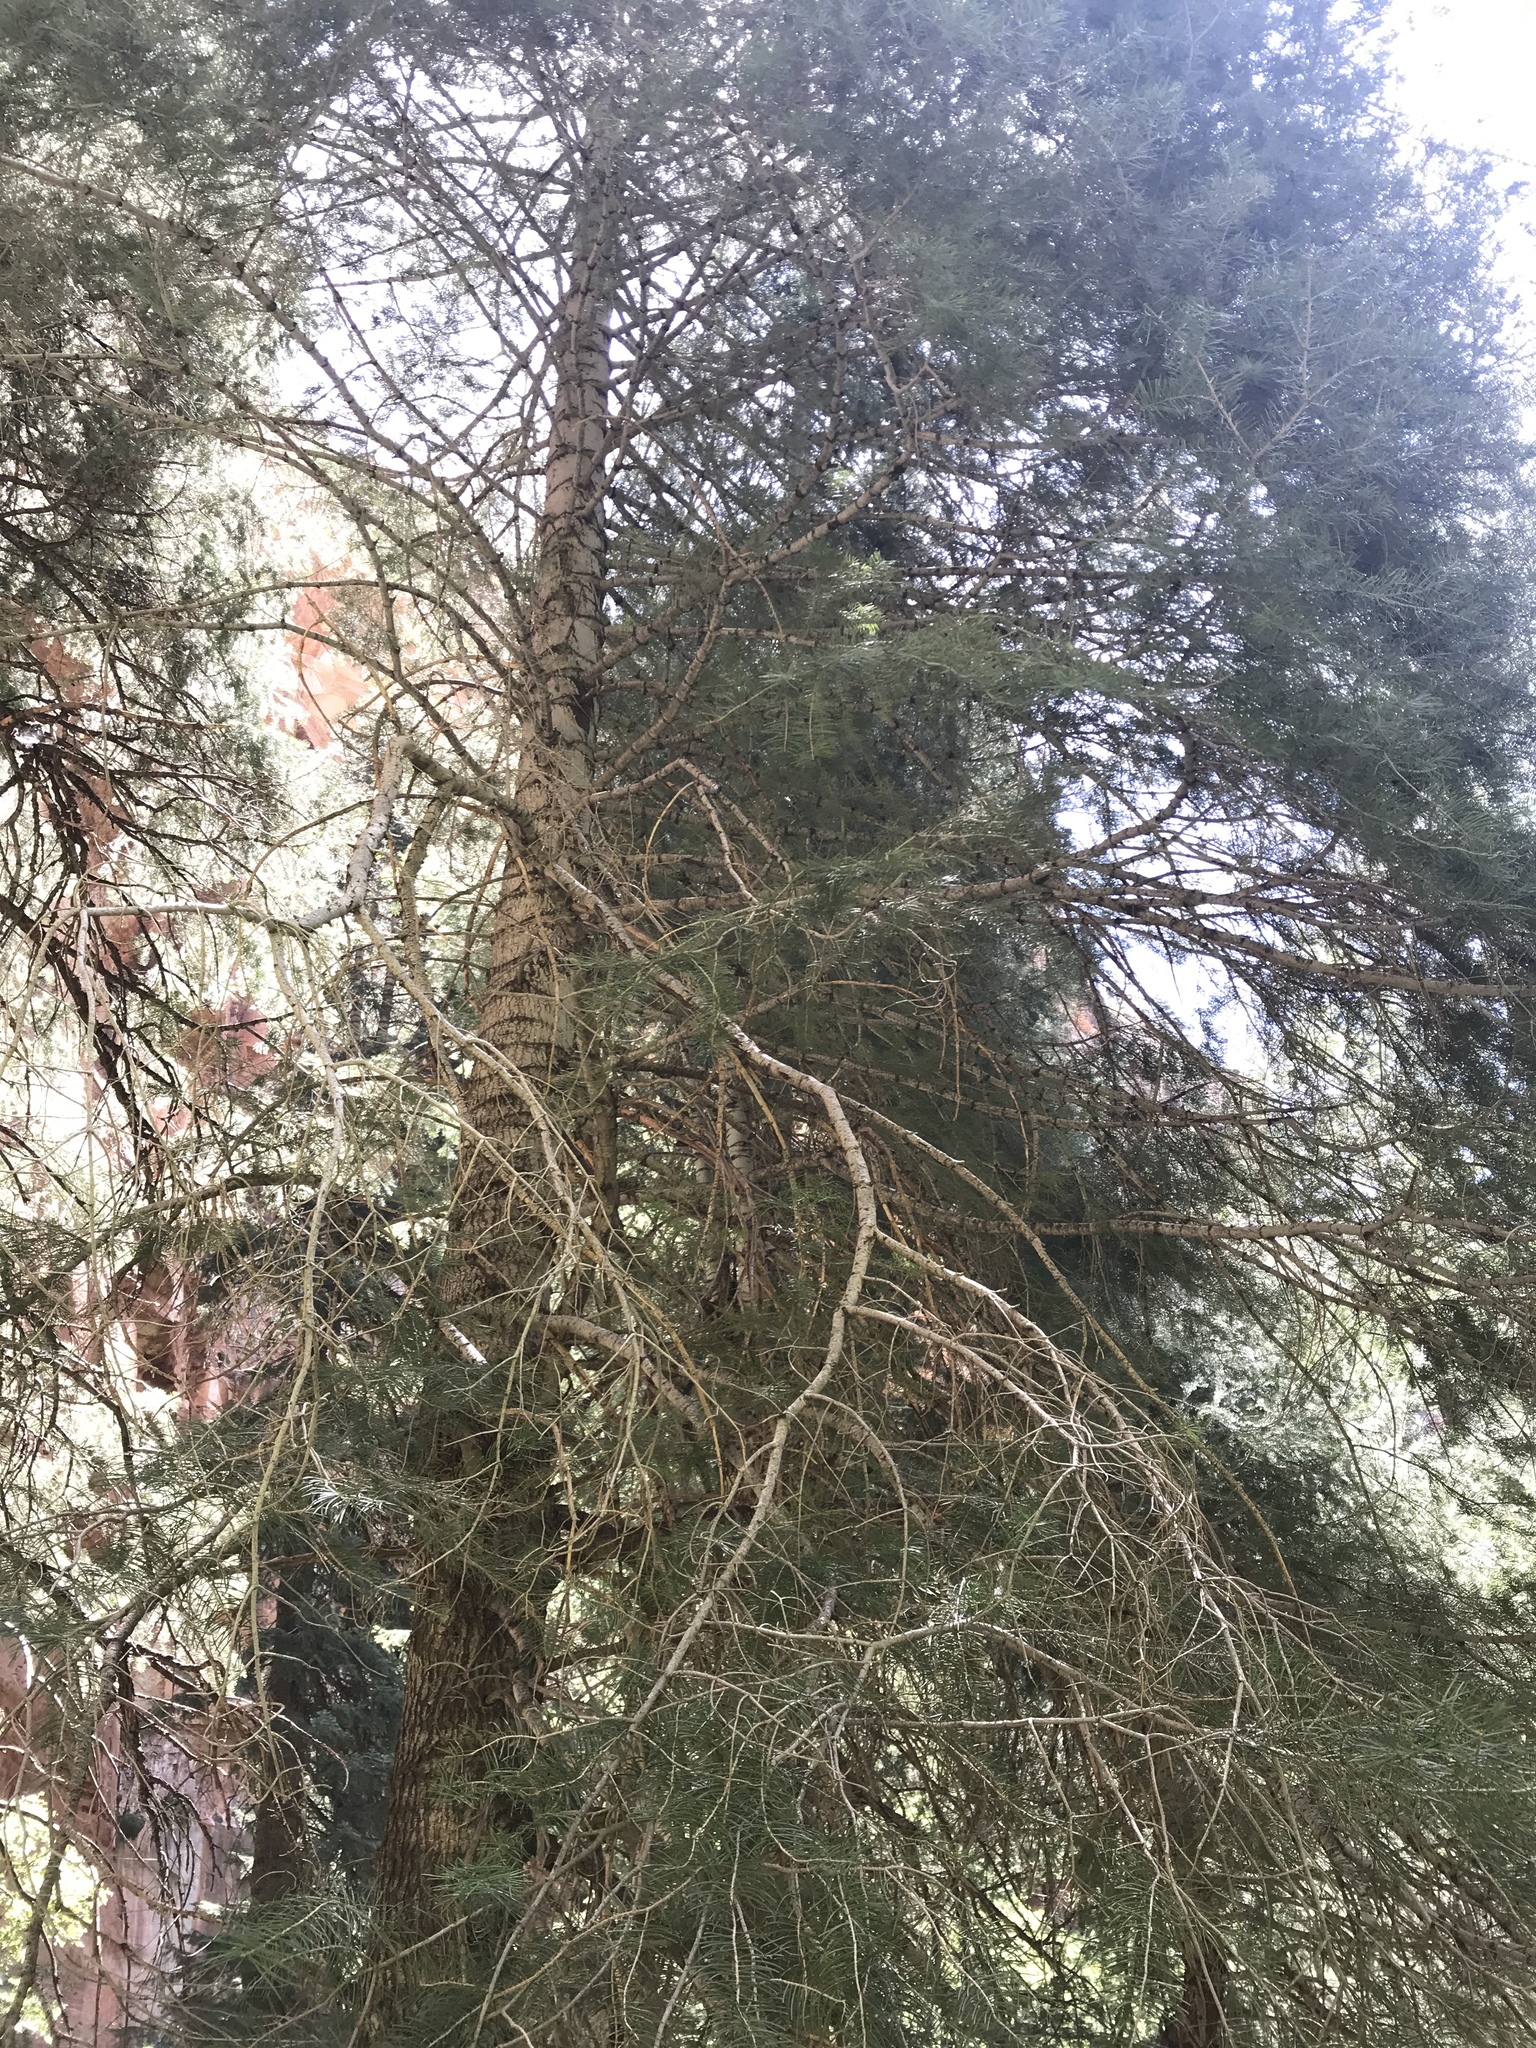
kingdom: Plantae
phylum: Tracheophyta
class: Pinopsida
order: Pinales
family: Pinaceae
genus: Abies
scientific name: Abies concolor
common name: Colorado fir
